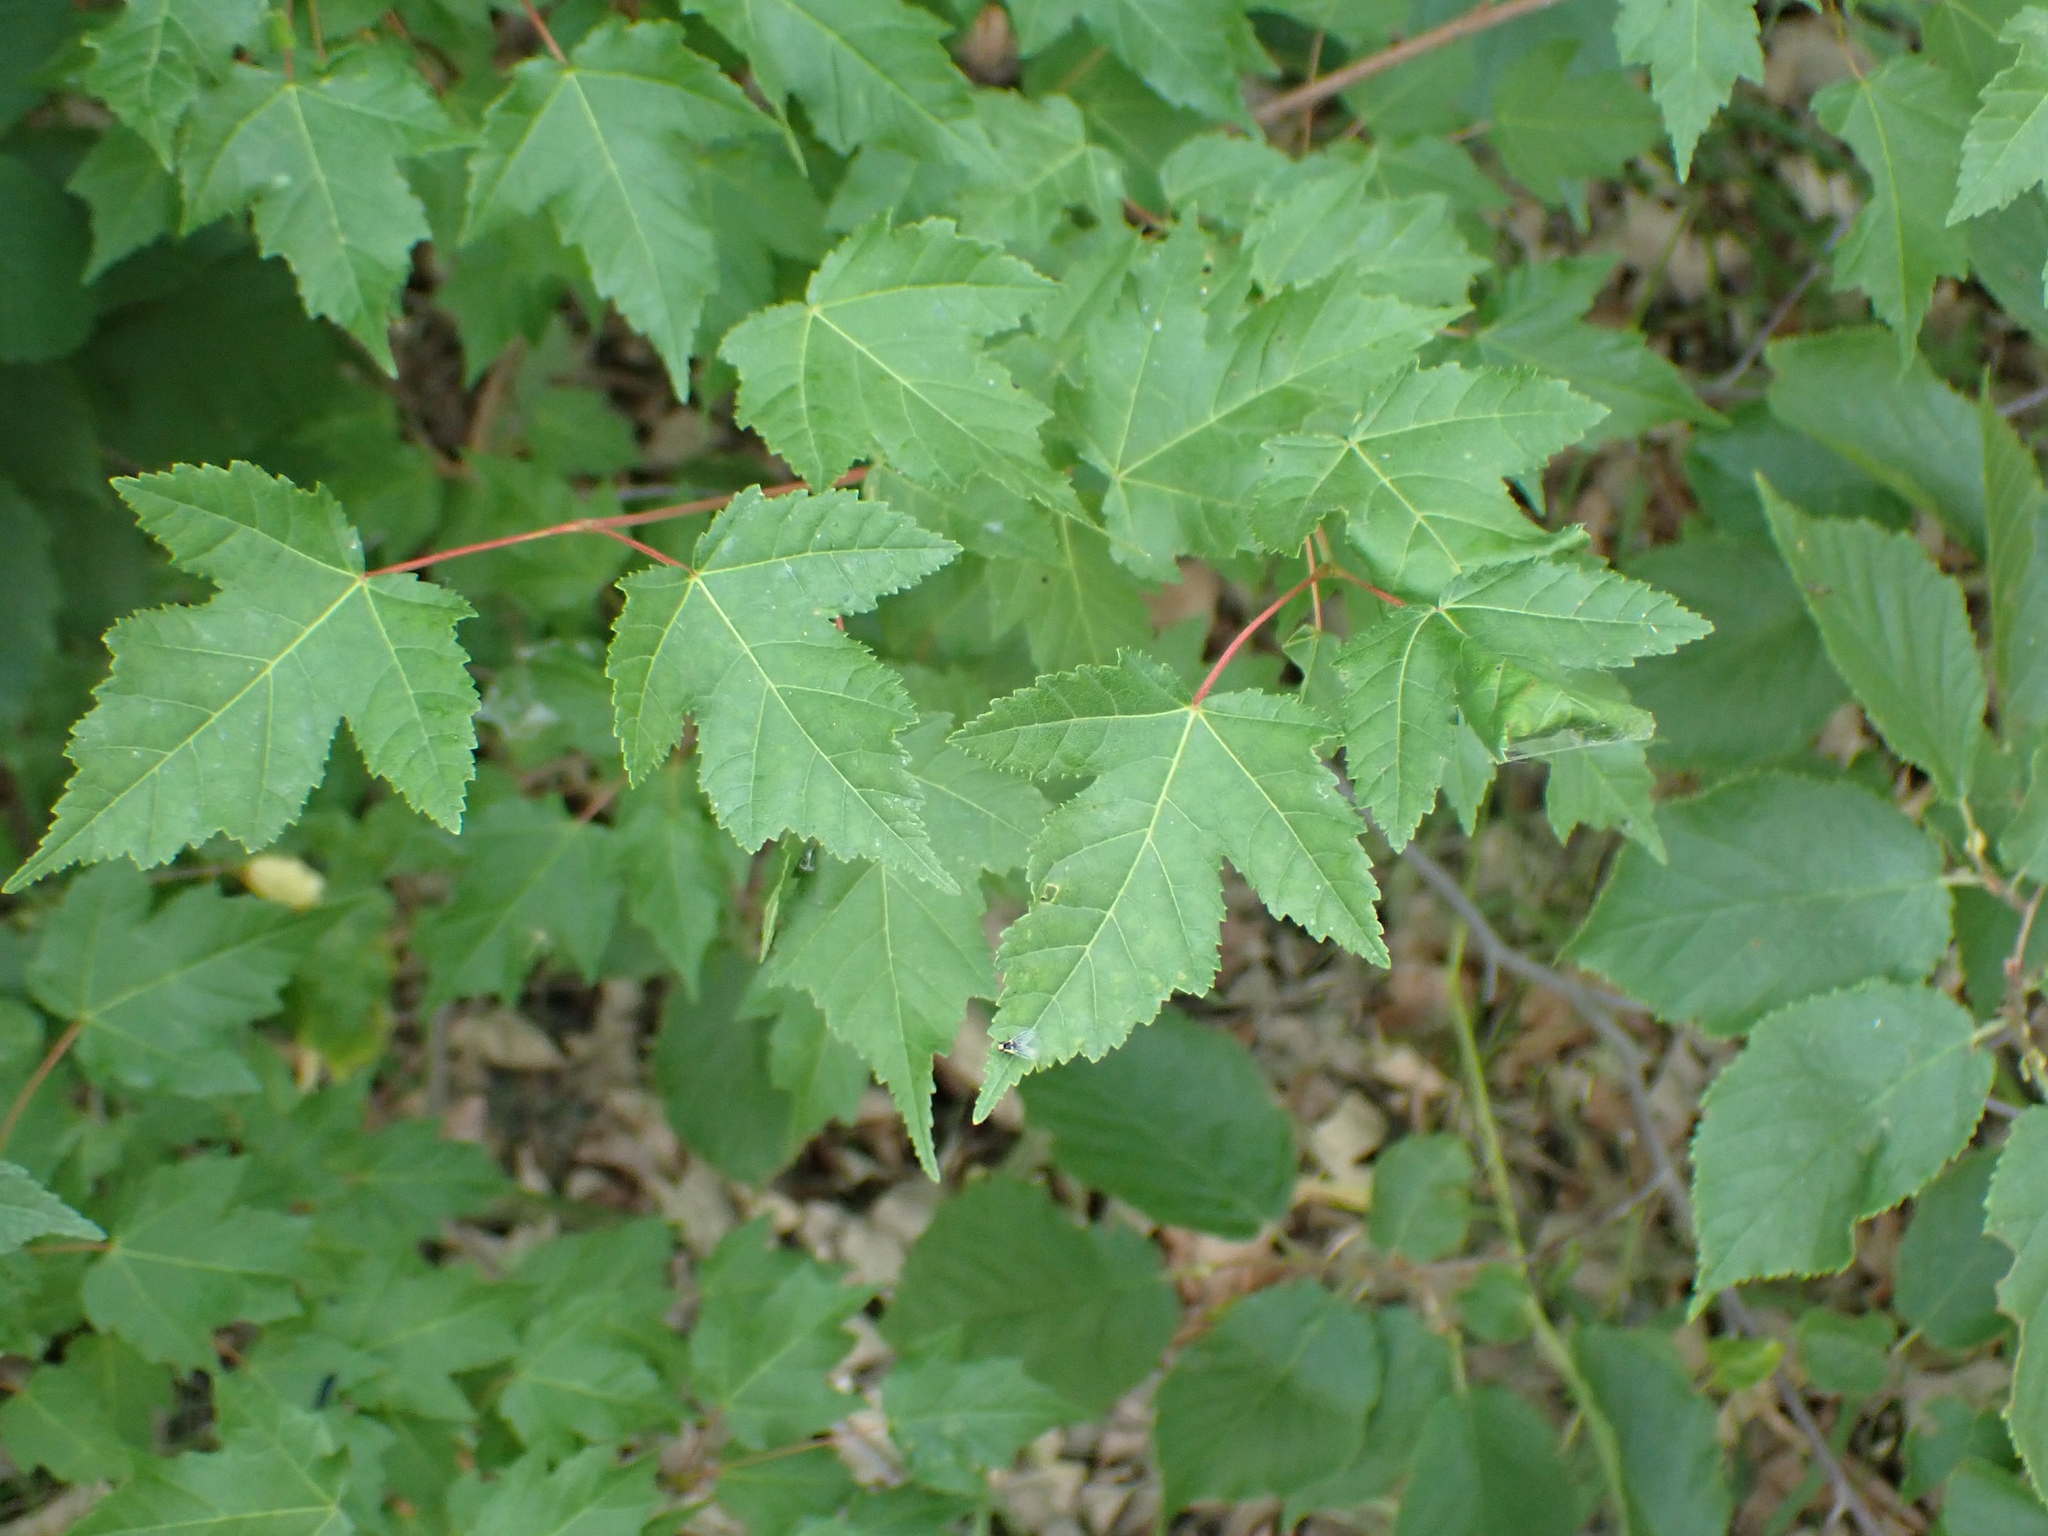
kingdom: Plantae
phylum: Tracheophyta
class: Magnoliopsida
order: Sapindales
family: Sapindaceae
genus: Acer
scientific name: Acer tataricum
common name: Tartar maple
